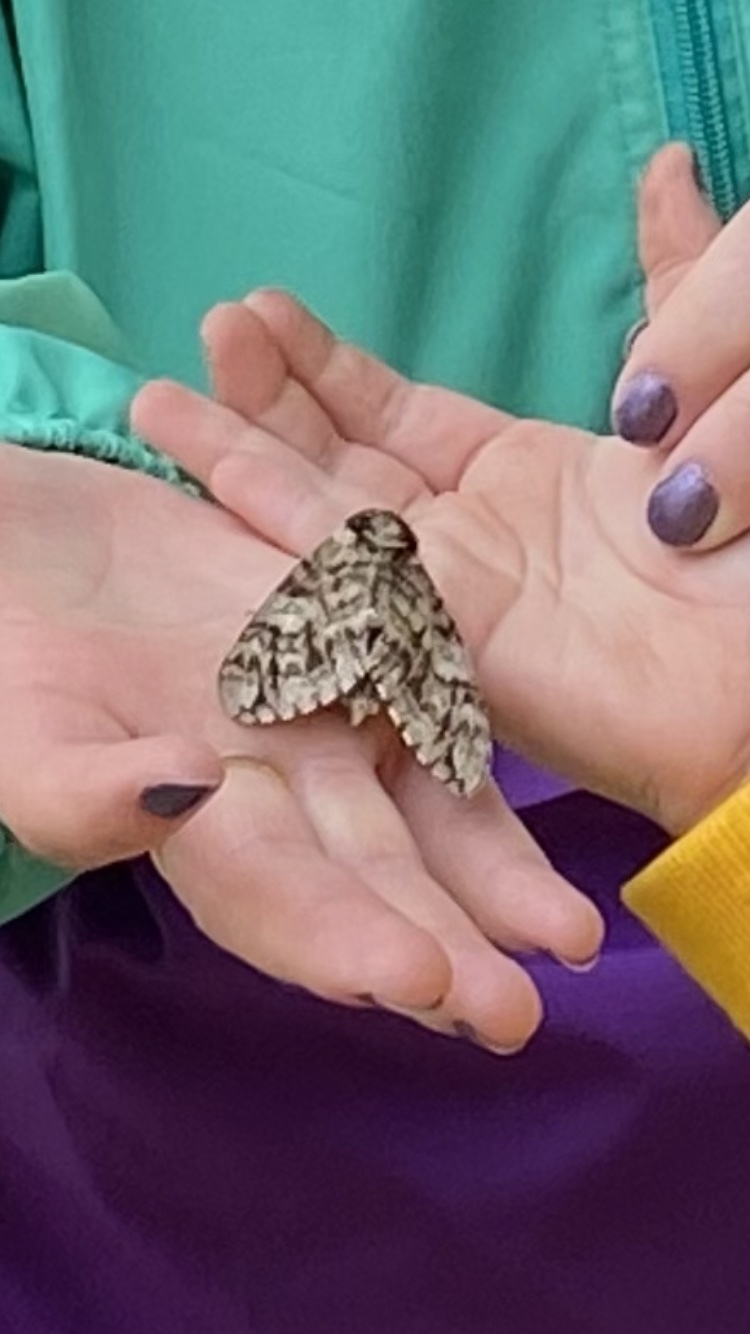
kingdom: Animalia
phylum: Arthropoda
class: Insecta
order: Lepidoptera
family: Sphingidae
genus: Ceratomia
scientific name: Ceratomia undulosa
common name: Waved sphinx
